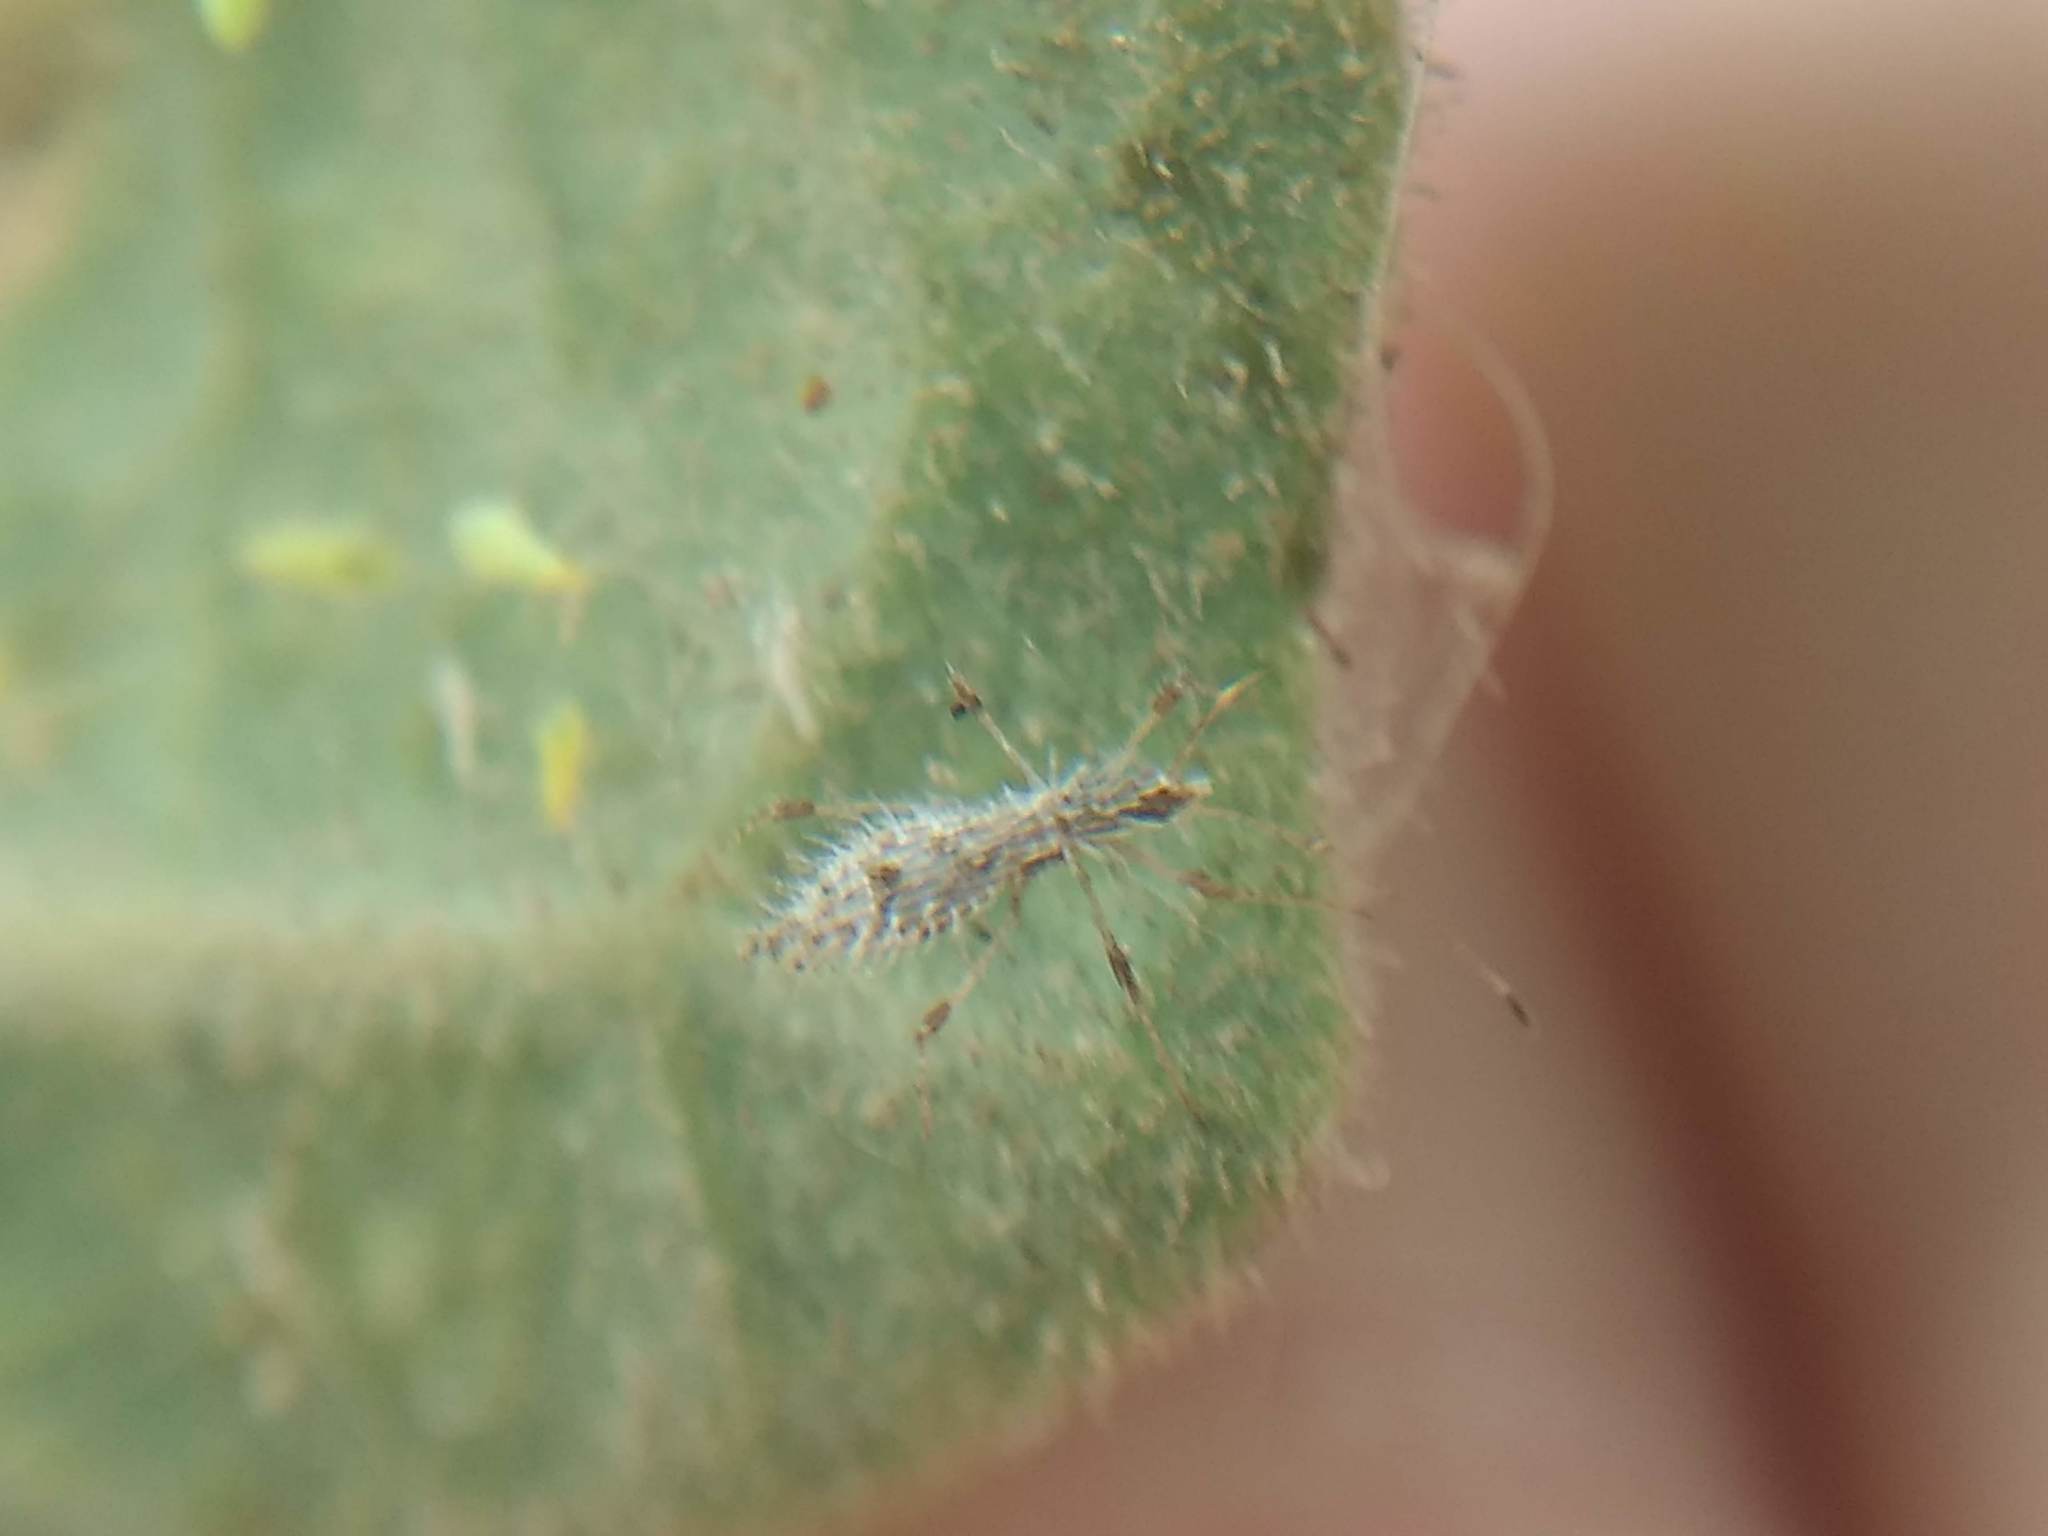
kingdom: Animalia
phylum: Arthropoda
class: Insecta
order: Hemiptera
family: Berytidae
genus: Hoplinus
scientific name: Hoplinus echinatus
